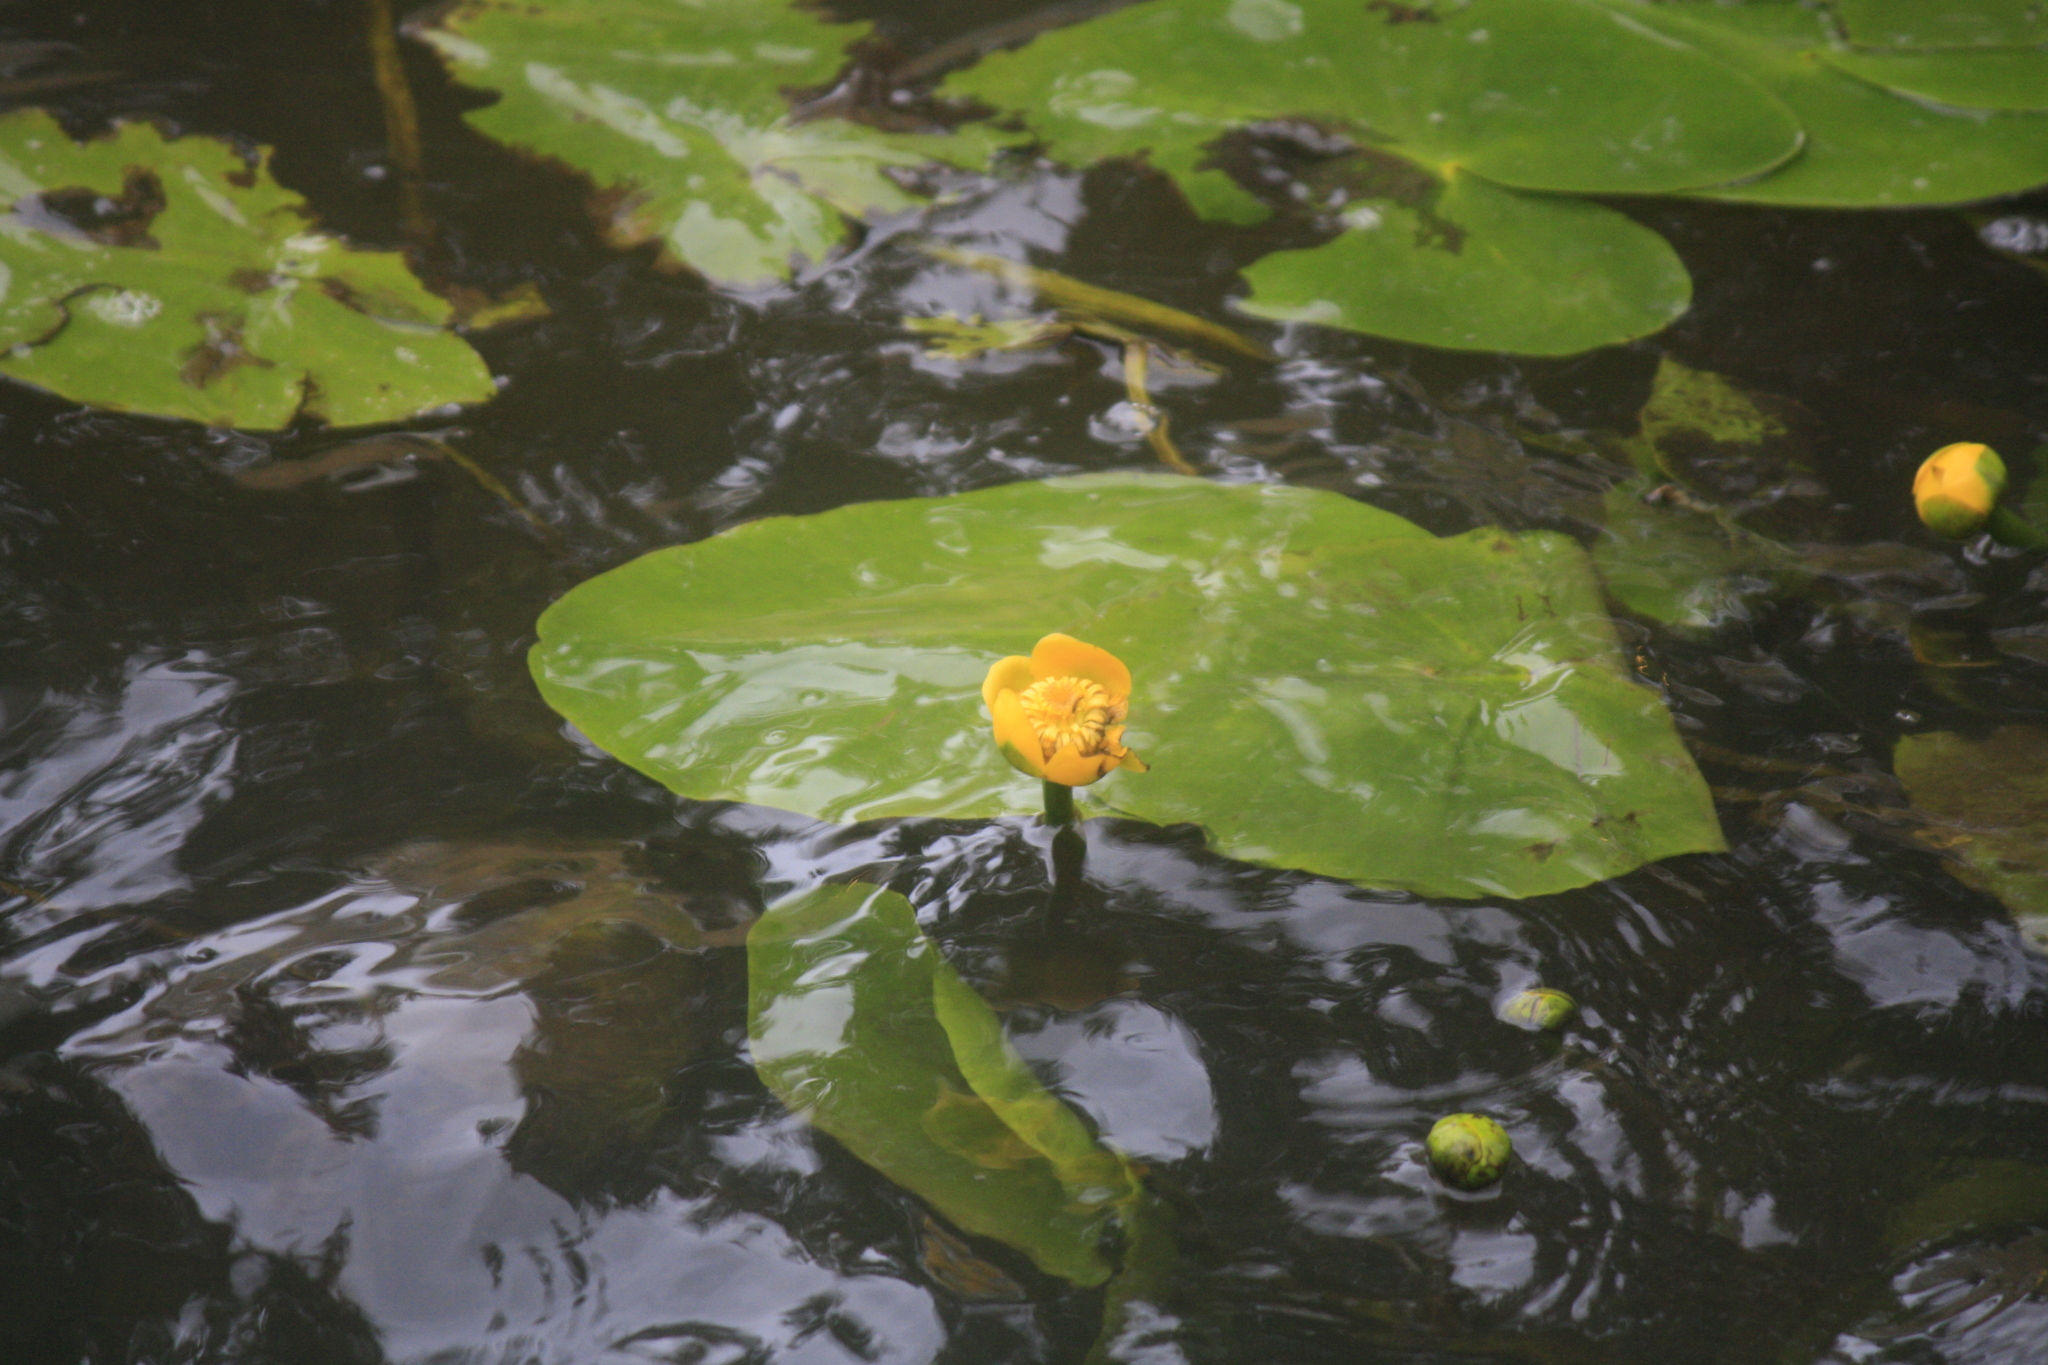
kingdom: Plantae
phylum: Tracheophyta
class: Magnoliopsida
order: Nymphaeales
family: Nymphaeaceae
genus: Nuphar
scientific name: Nuphar lutea
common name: Yellow water-lily
